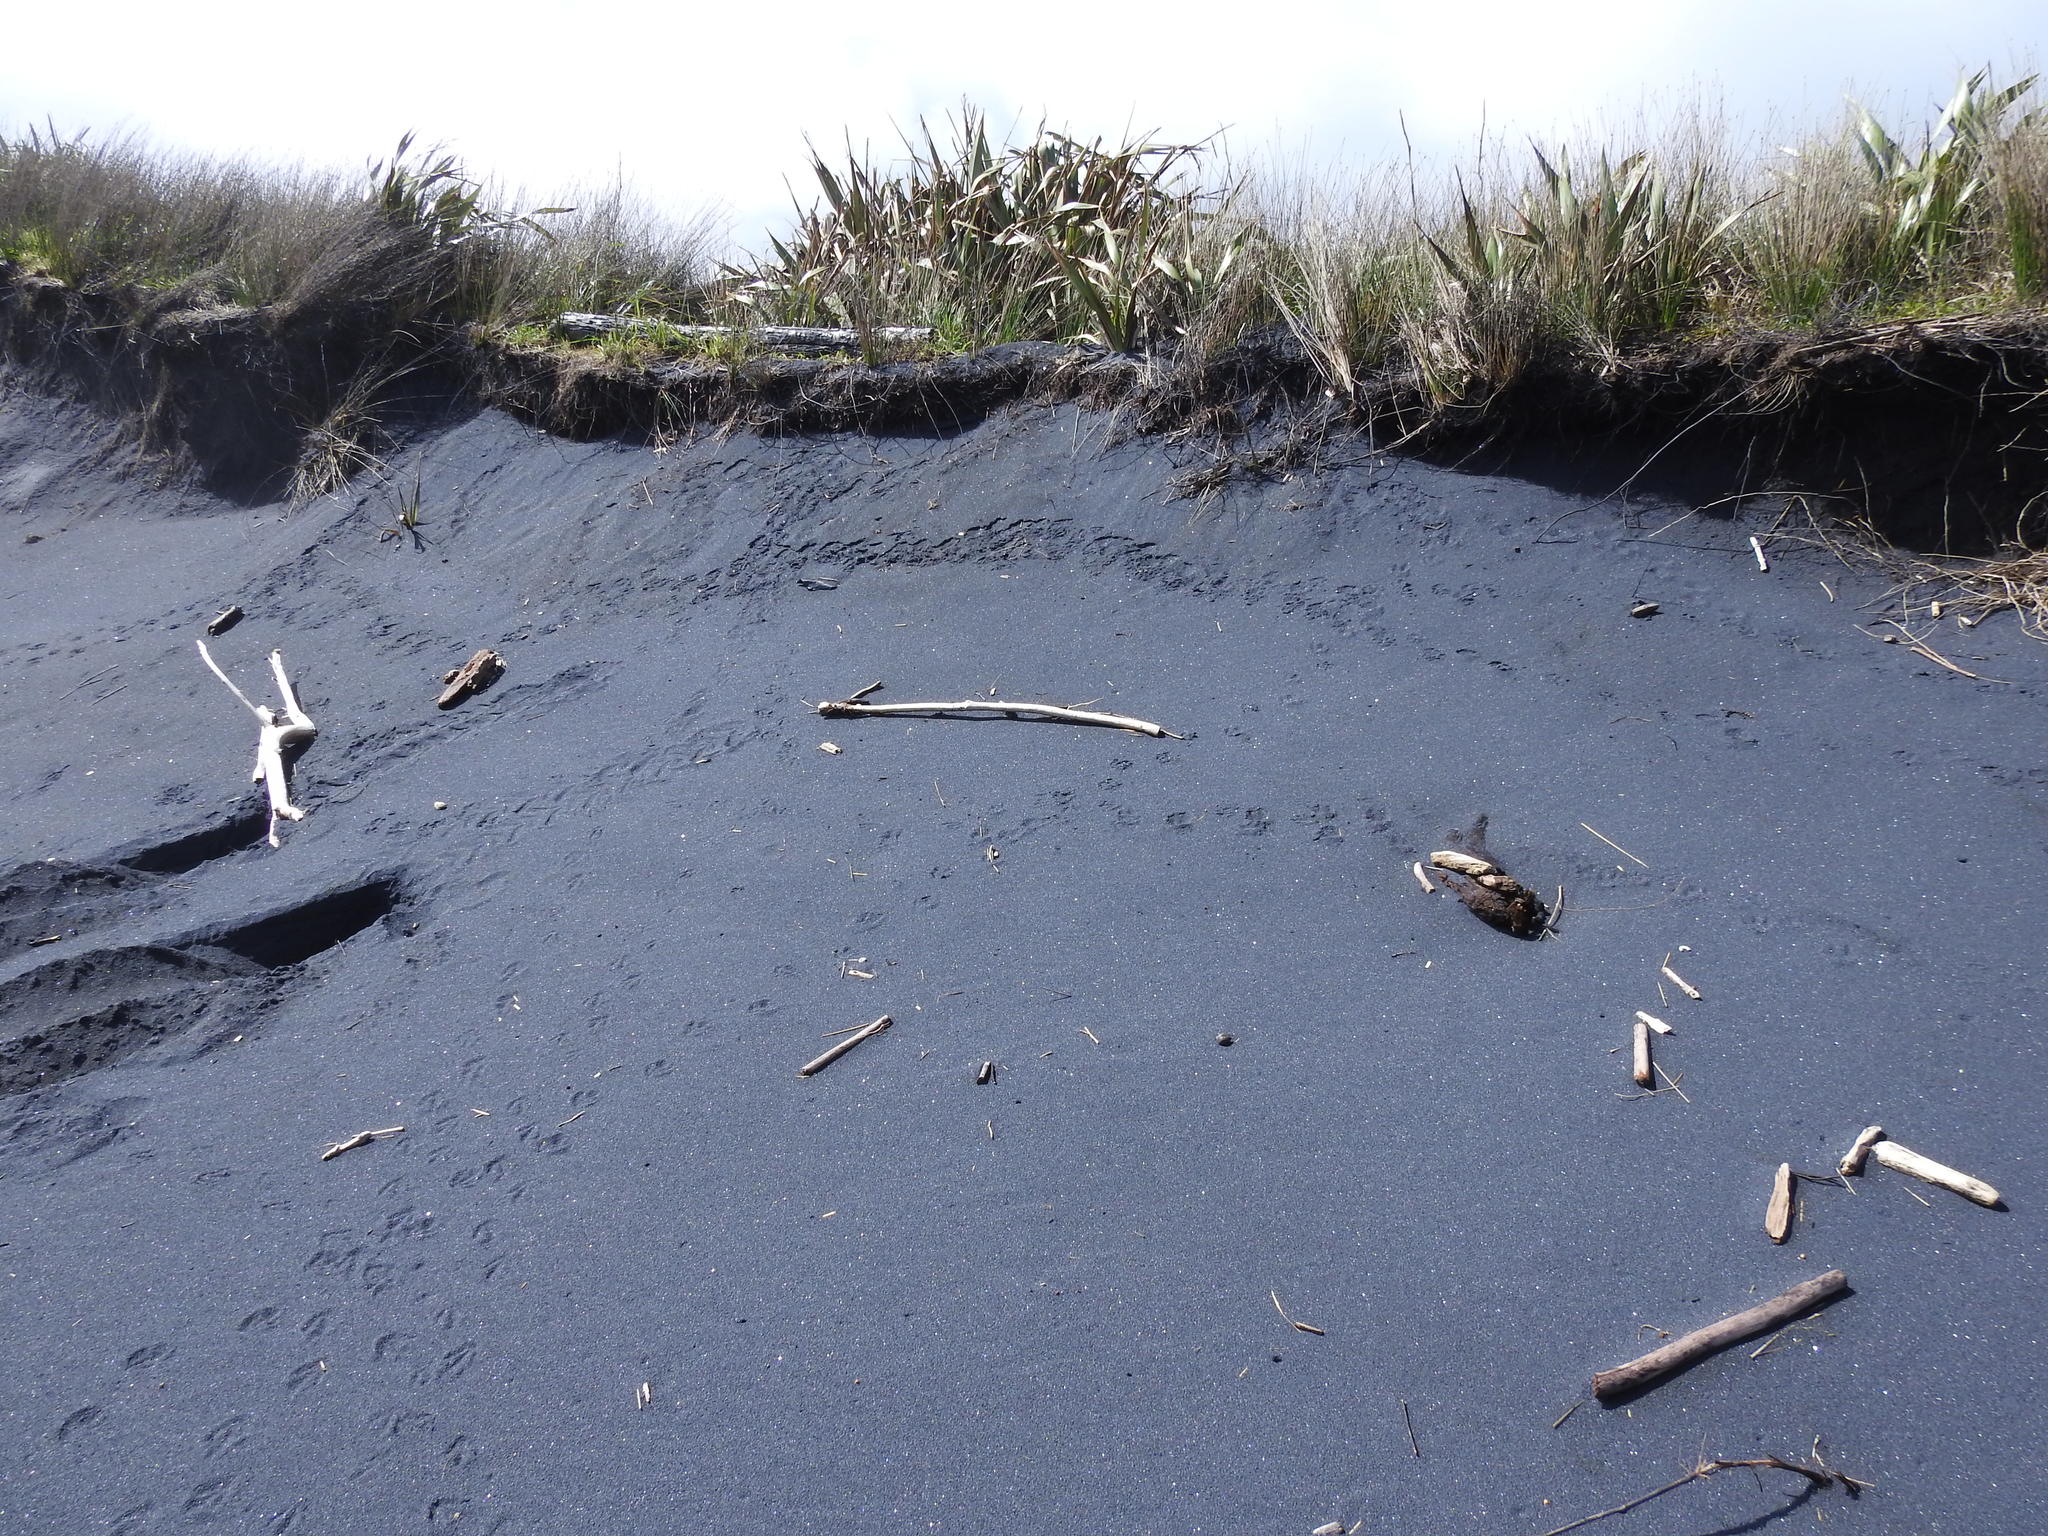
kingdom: Animalia
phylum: Chordata
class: Aves
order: Sphenisciformes
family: Spheniscidae
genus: Eudyptula
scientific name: Eudyptula minor
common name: Little penguin
